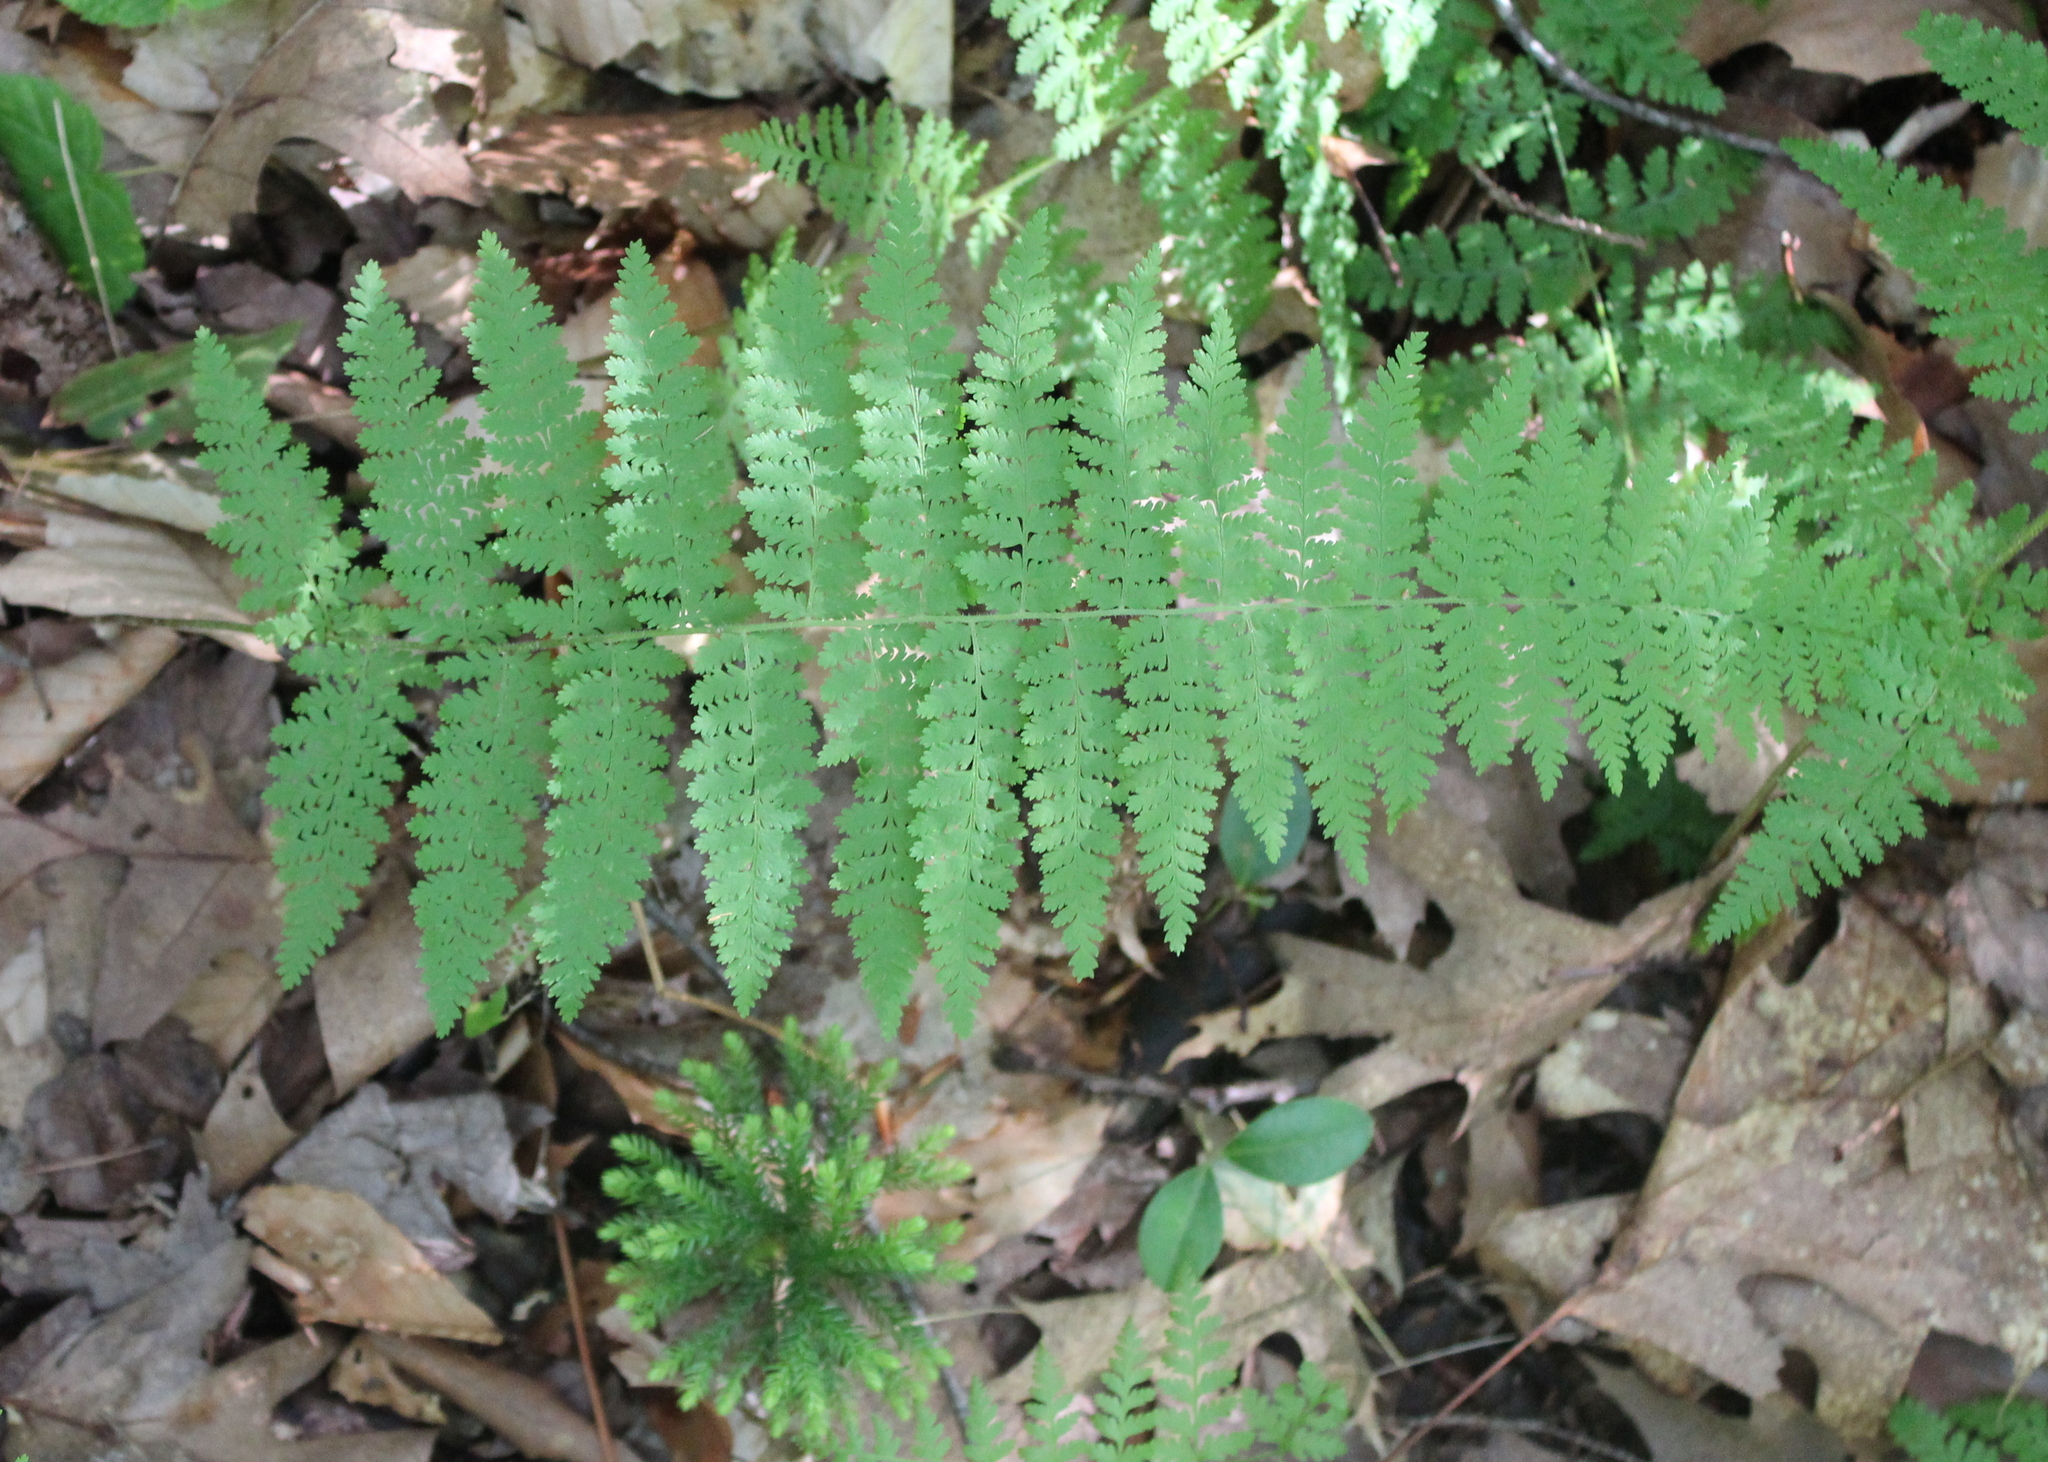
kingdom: Plantae
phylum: Tracheophyta
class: Polypodiopsida
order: Polypodiales
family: Dennstaedtiaceae
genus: Sitobolium
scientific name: Sitobolium punctilobum
